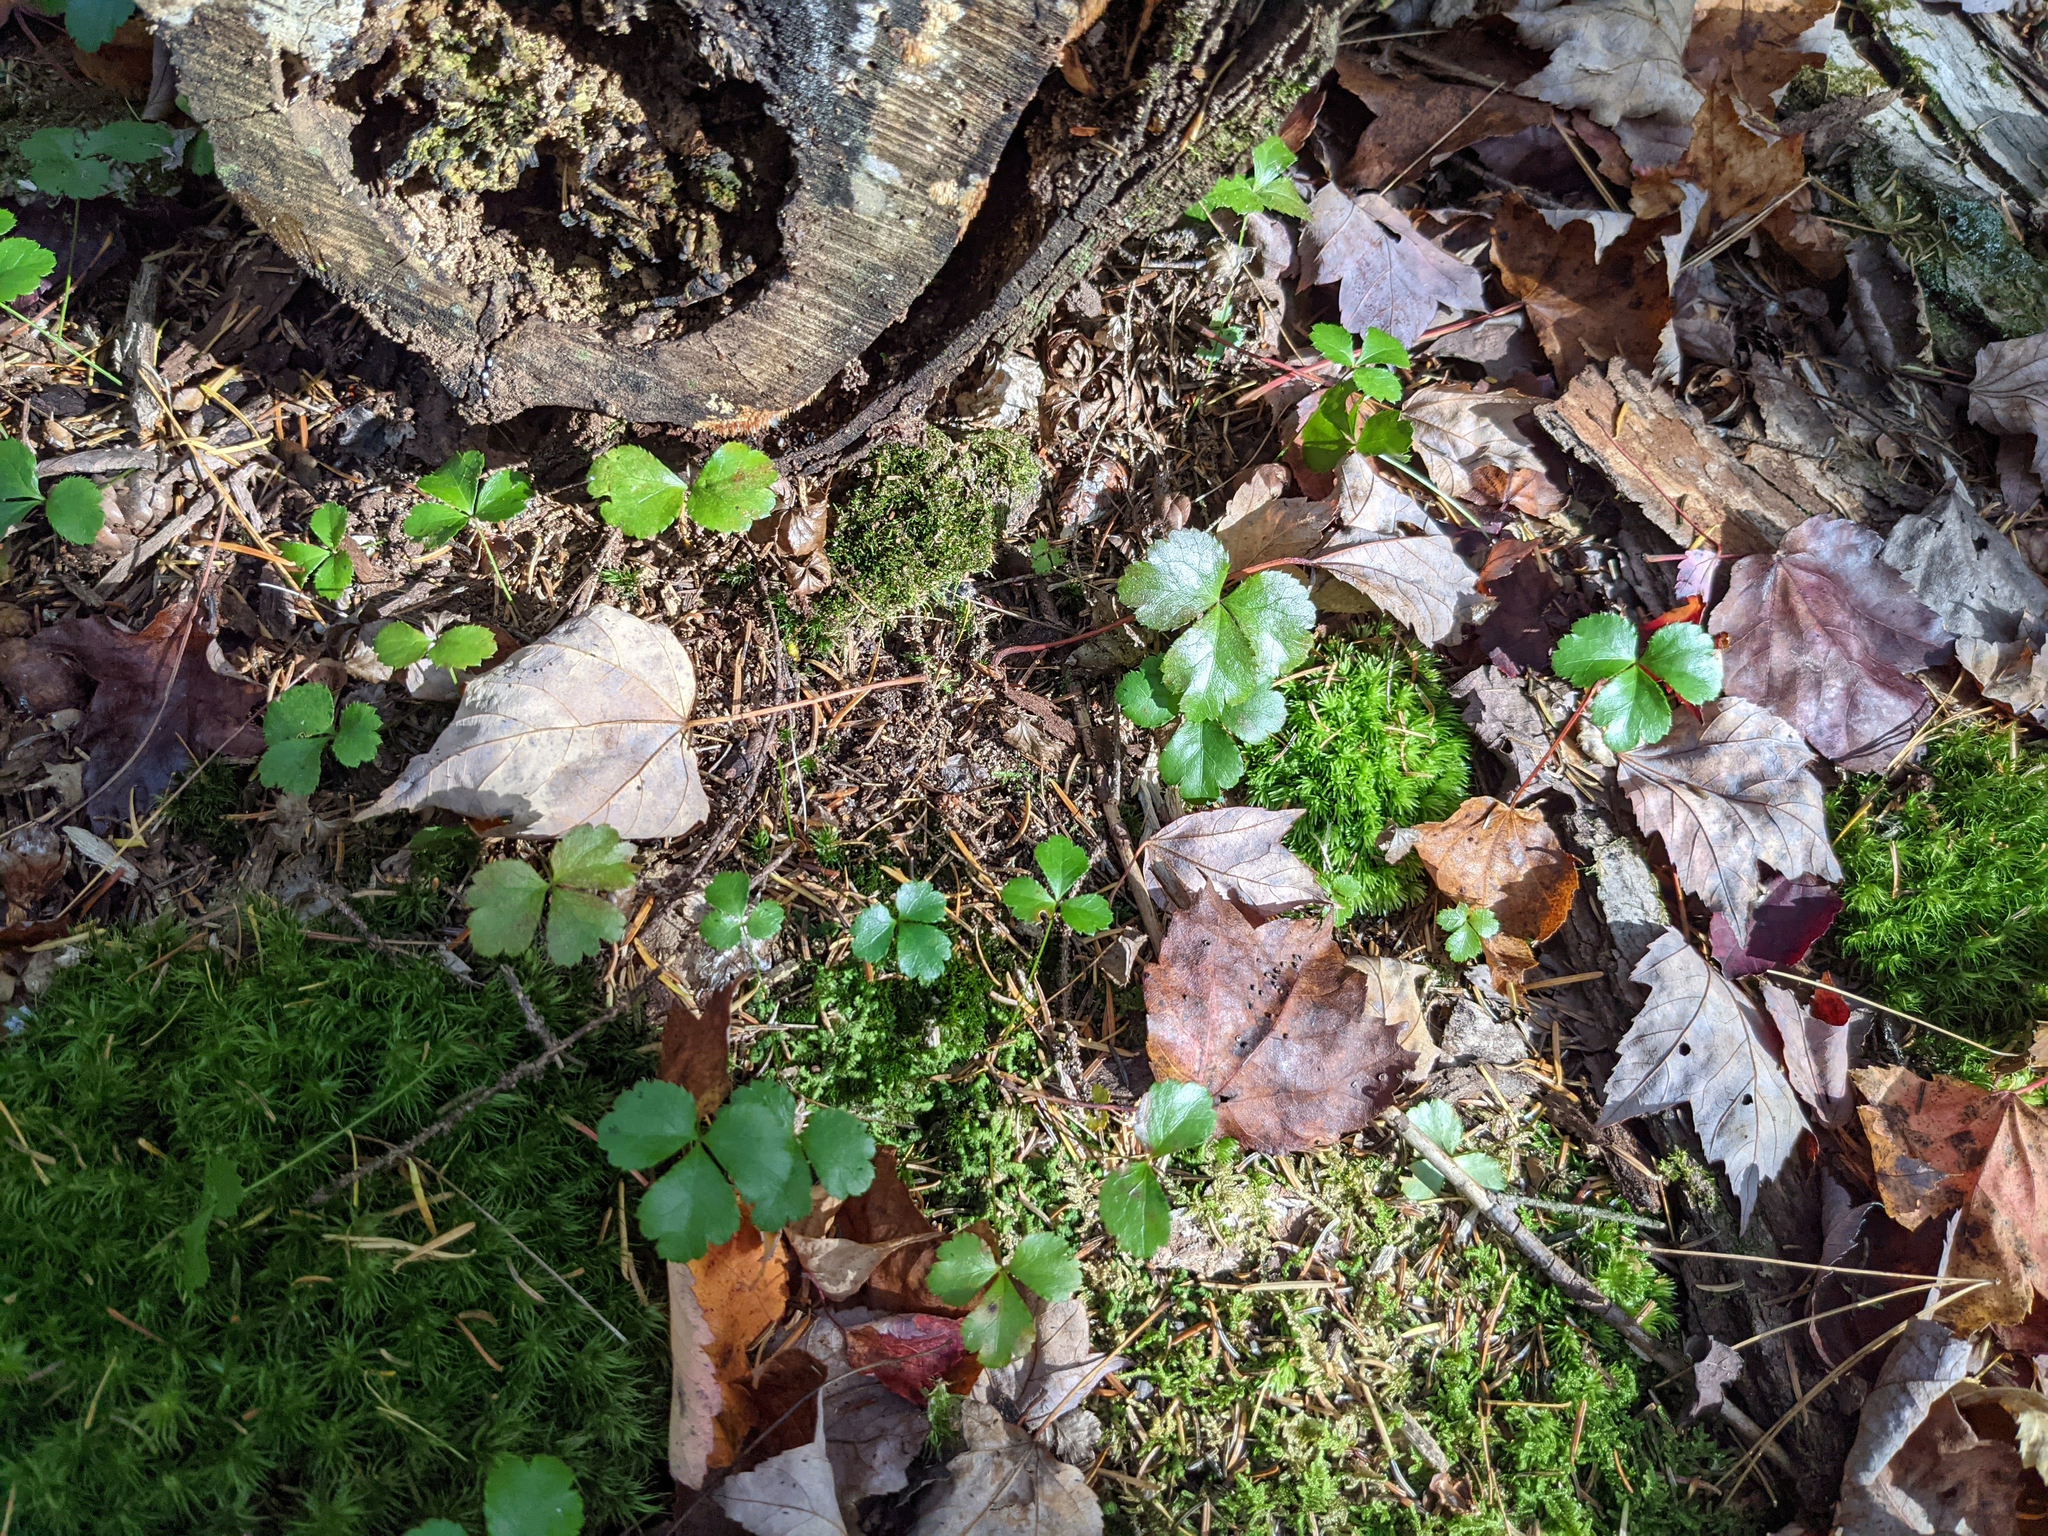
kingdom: Plantae
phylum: Tracheophyta
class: Magnoliopsida
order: Ranunculales
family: Ranunculaceae
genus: Coptis
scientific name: Coptis trifolia
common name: Canker-root
